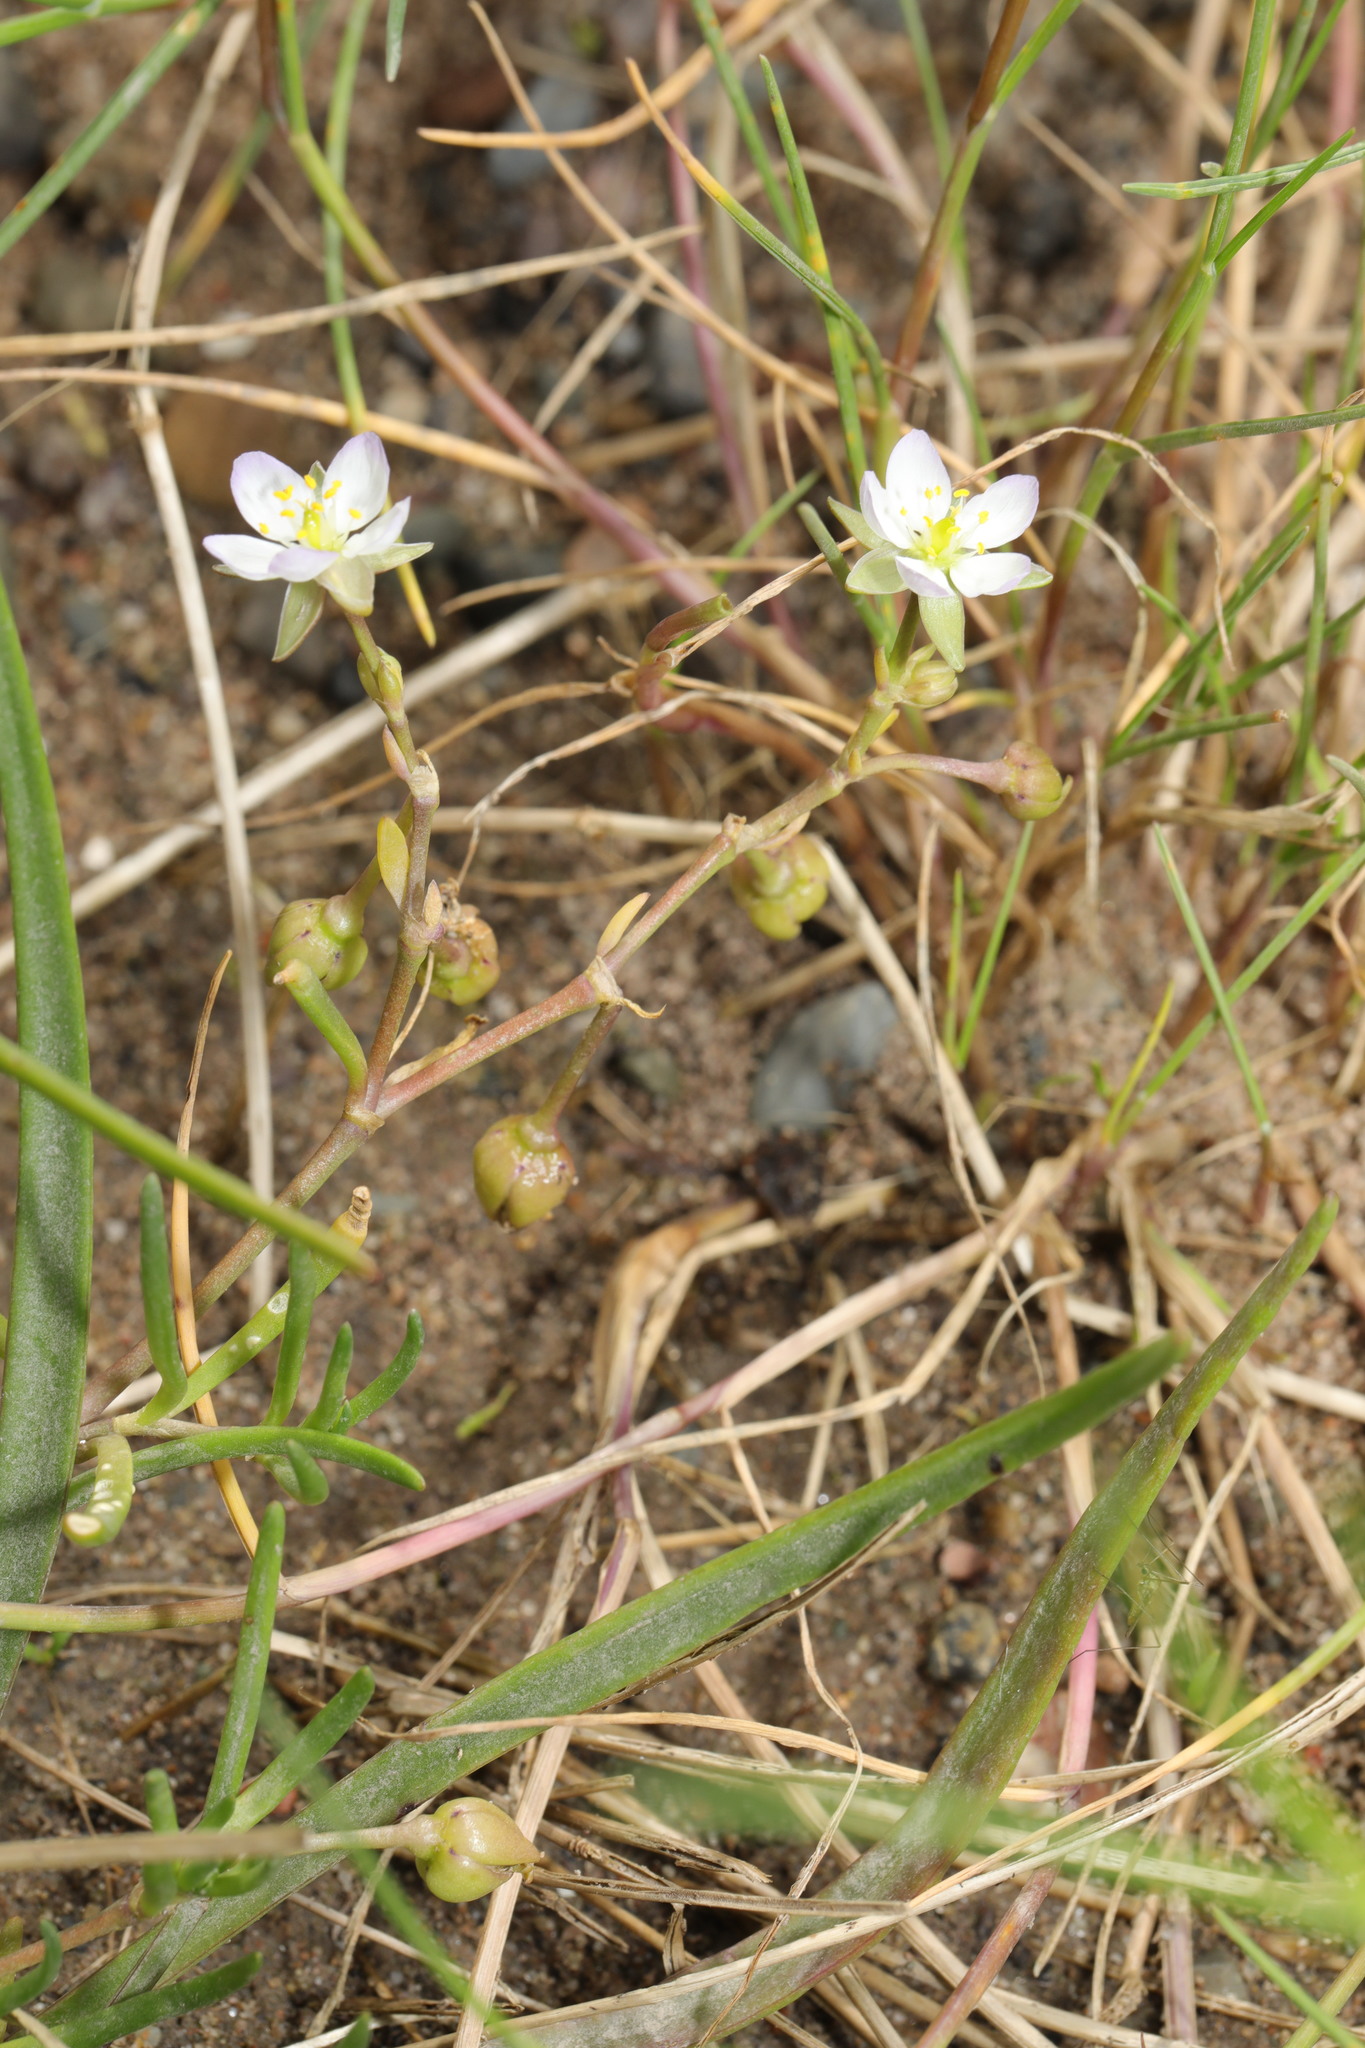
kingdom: Plantae
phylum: Tracheophyta
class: Magnoliopsida
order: Caryophyllales
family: Caryophyllaceae
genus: Spergularia
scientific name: Spergularia media
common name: Greater sea-spurrey
